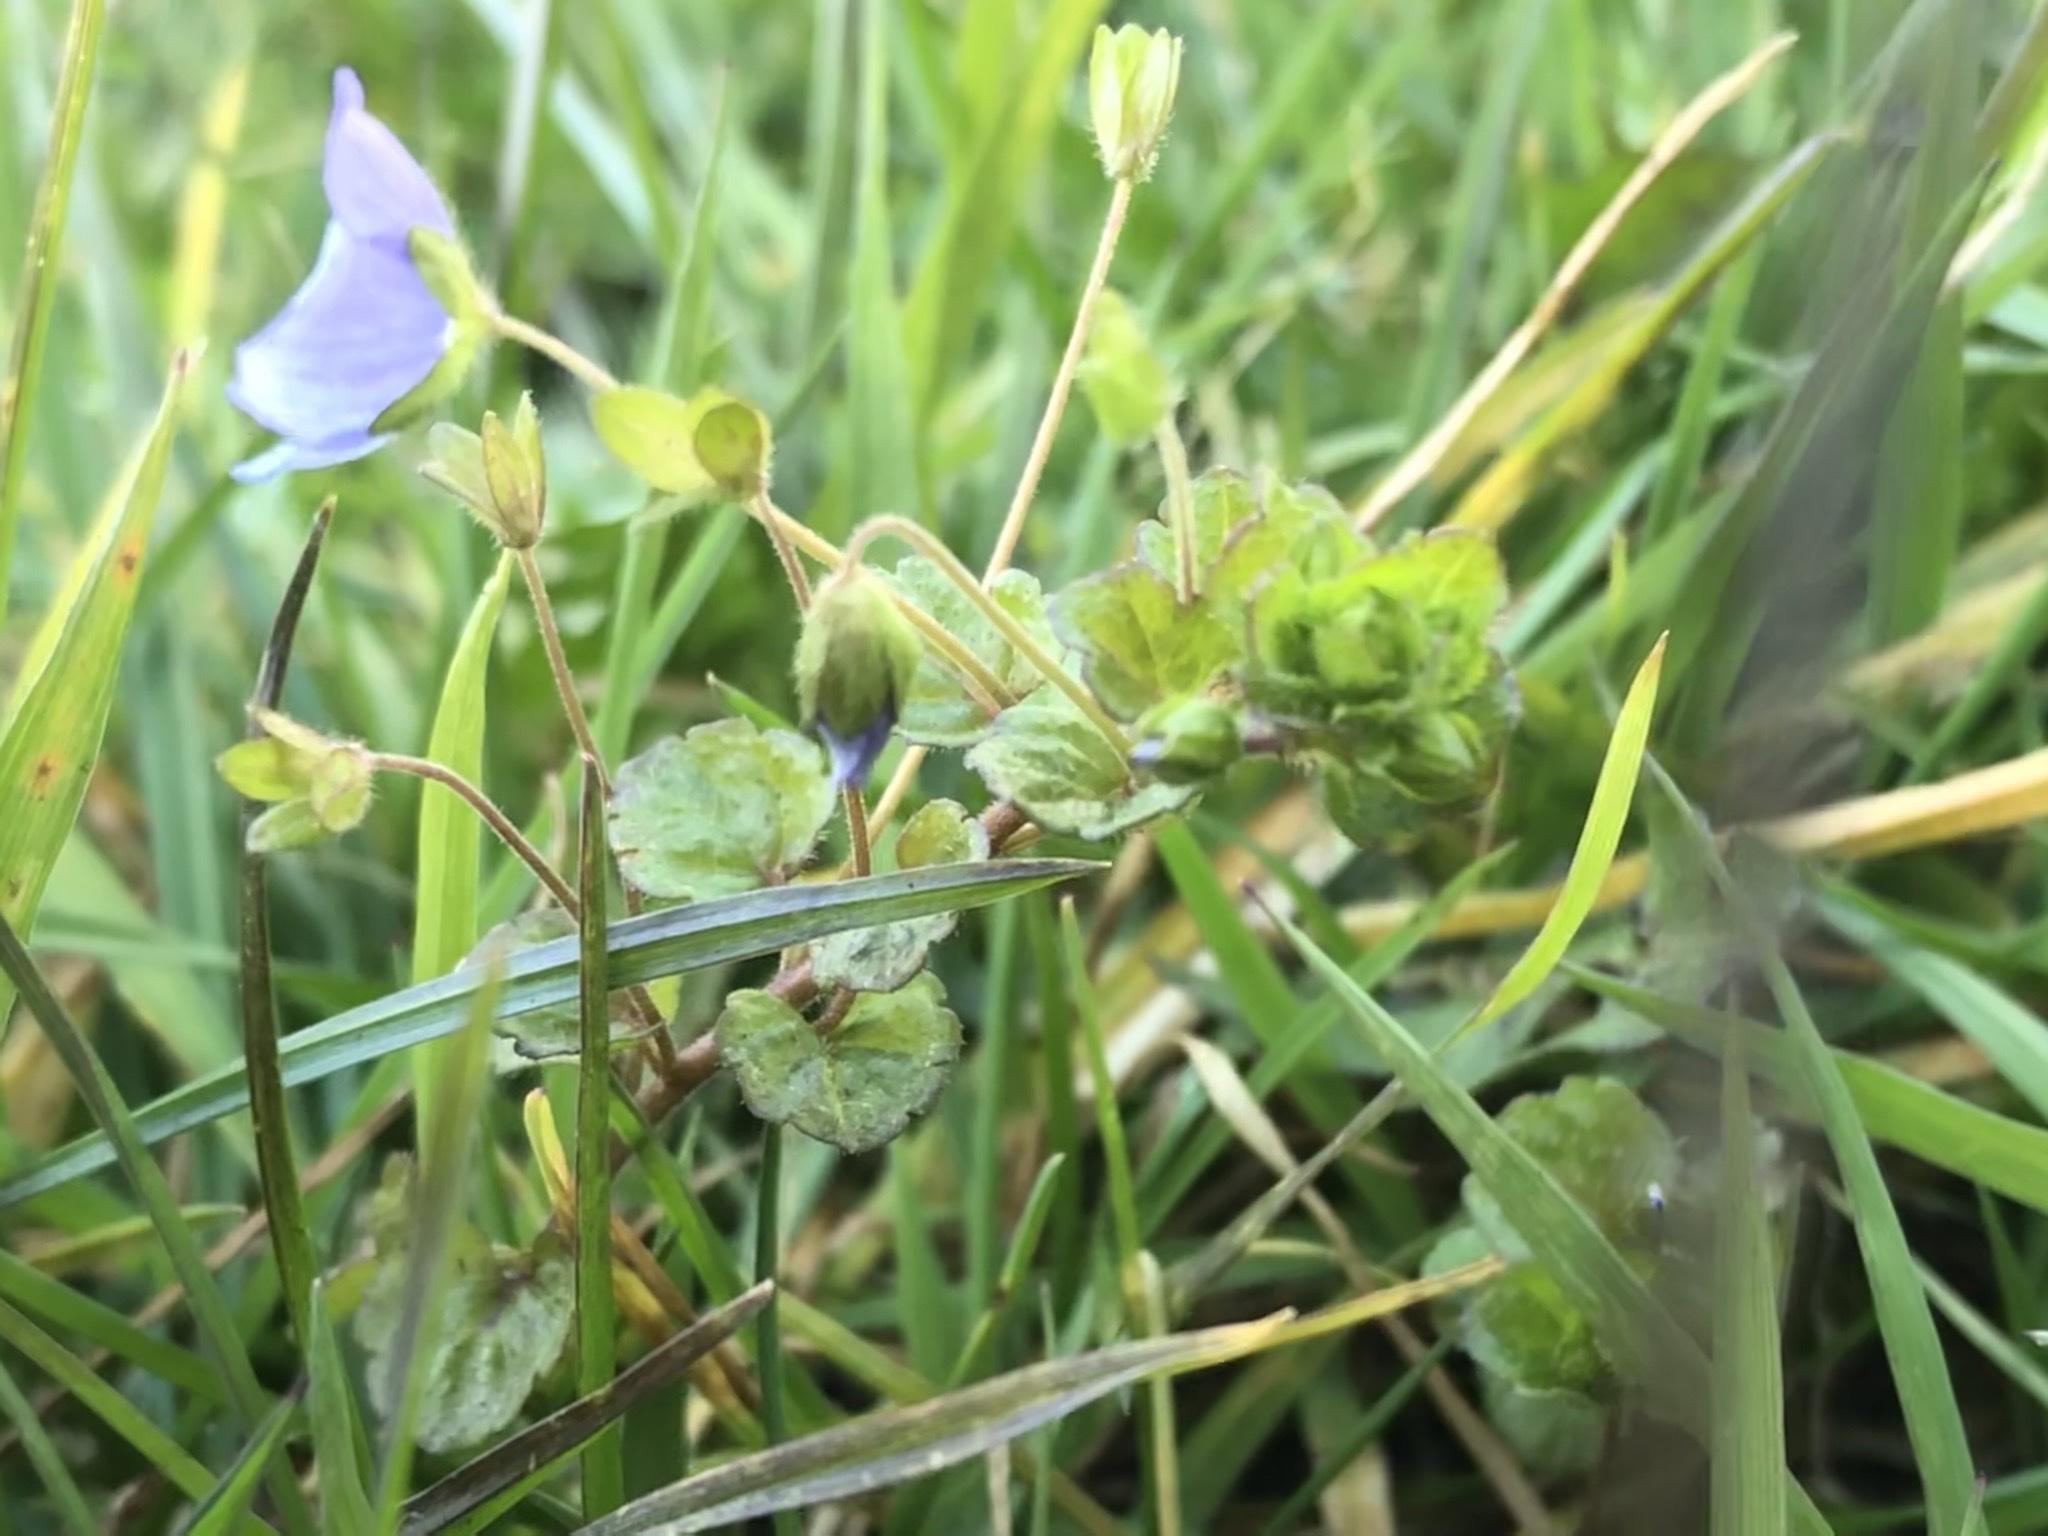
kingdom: Plantae
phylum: Tracheophyta
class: Magnoliopsida
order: Lamiales
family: Plantaginaceae
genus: Veronica
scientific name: Veronica filiformis
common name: Slender speedwell
